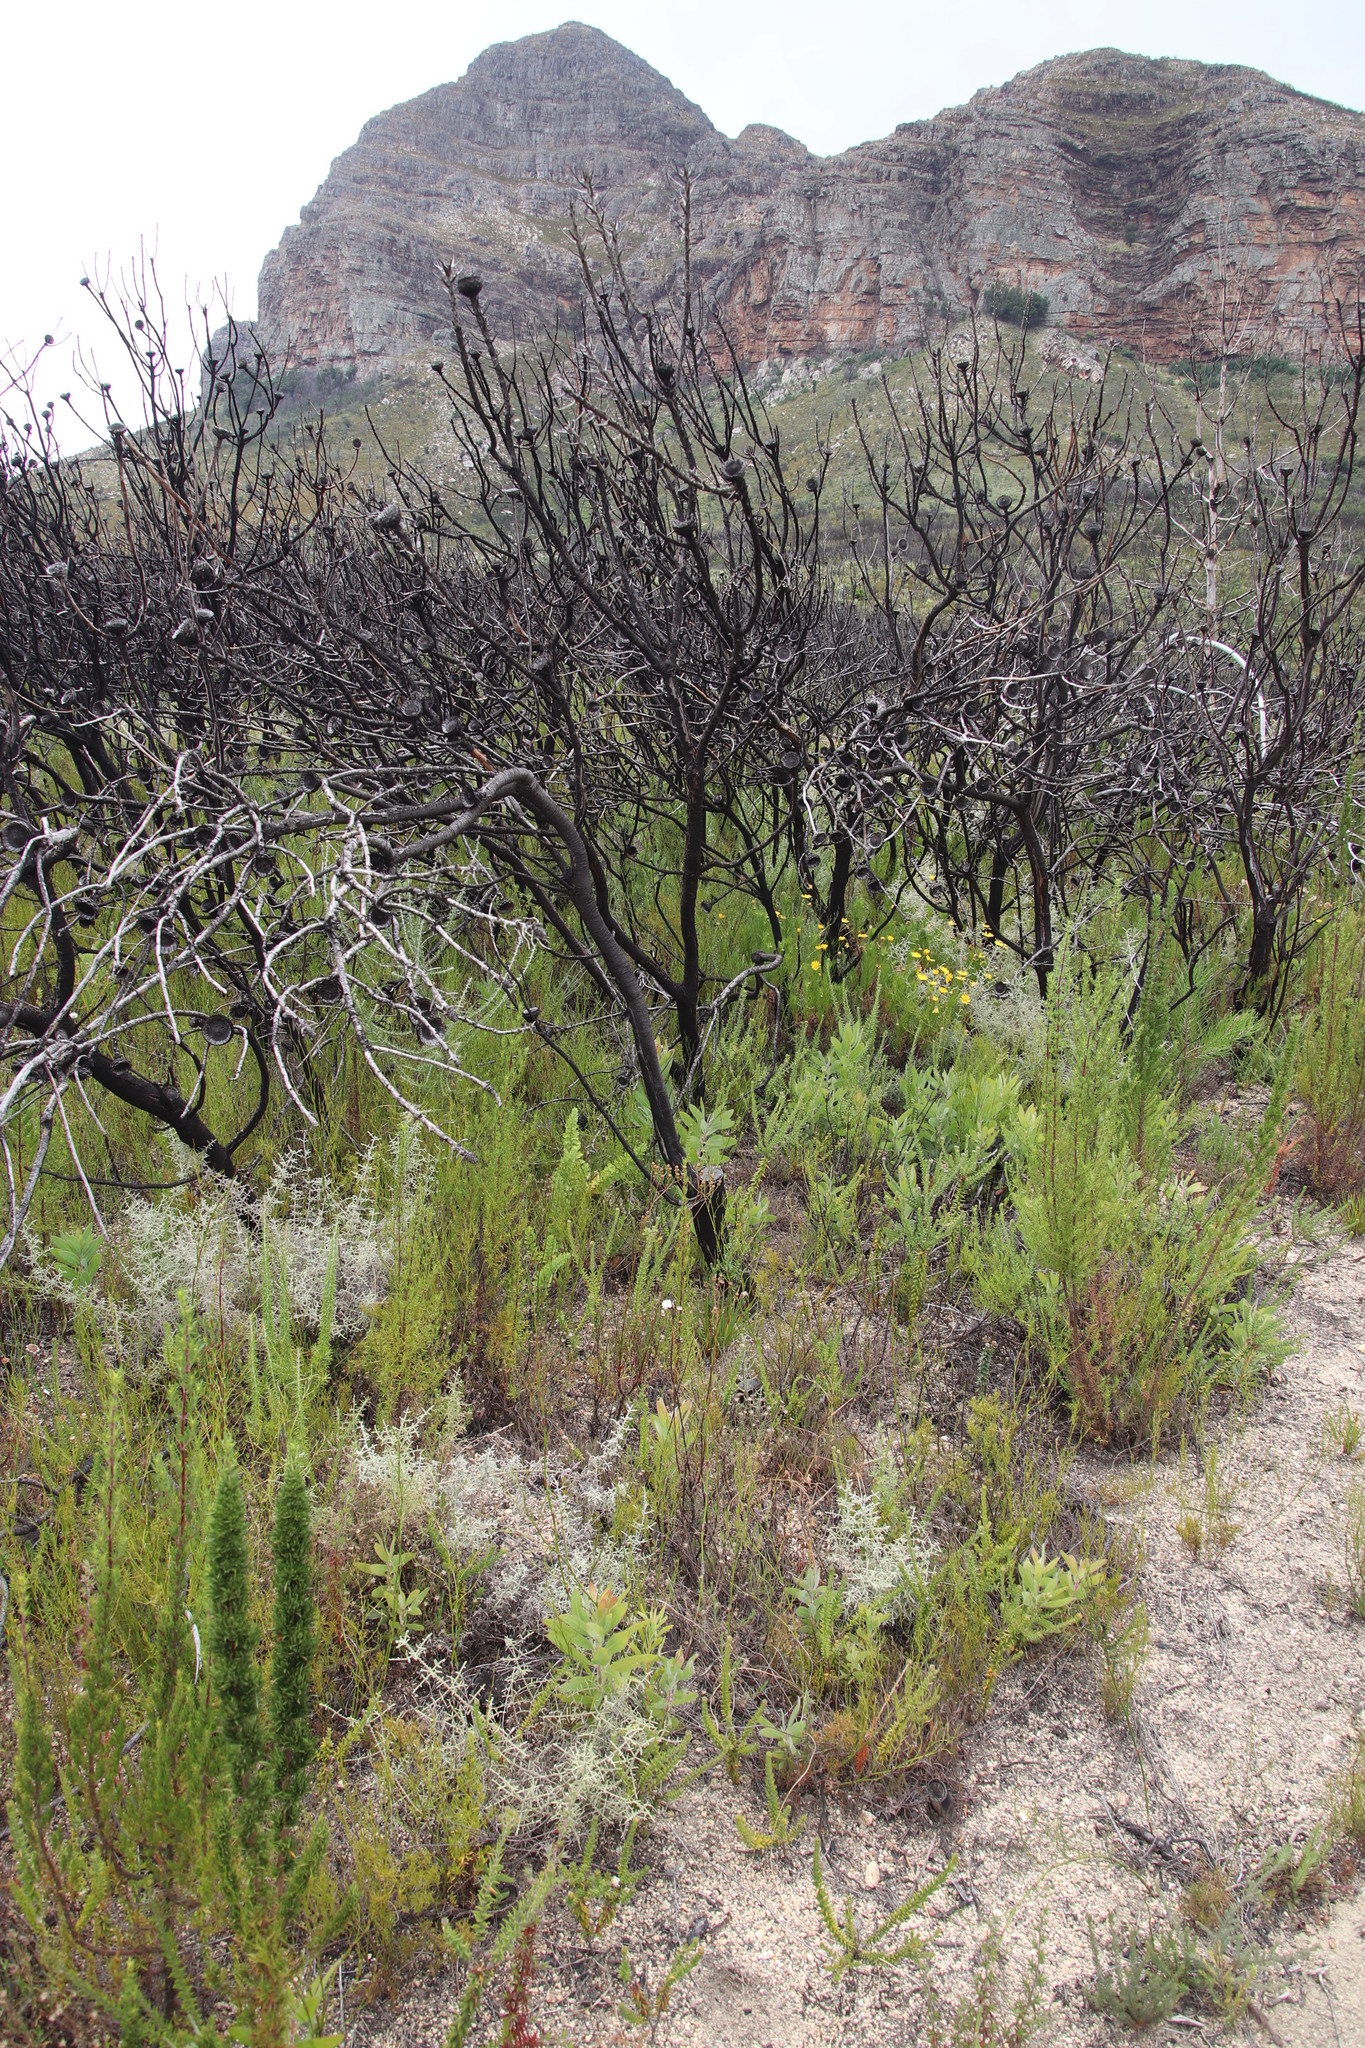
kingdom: Plantae
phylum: Tracheophyta
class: Magnoliopsida
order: Proteales
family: Proteaceae
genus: Protea
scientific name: Protea laurifolia
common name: Grey-leaf sugarbsh
